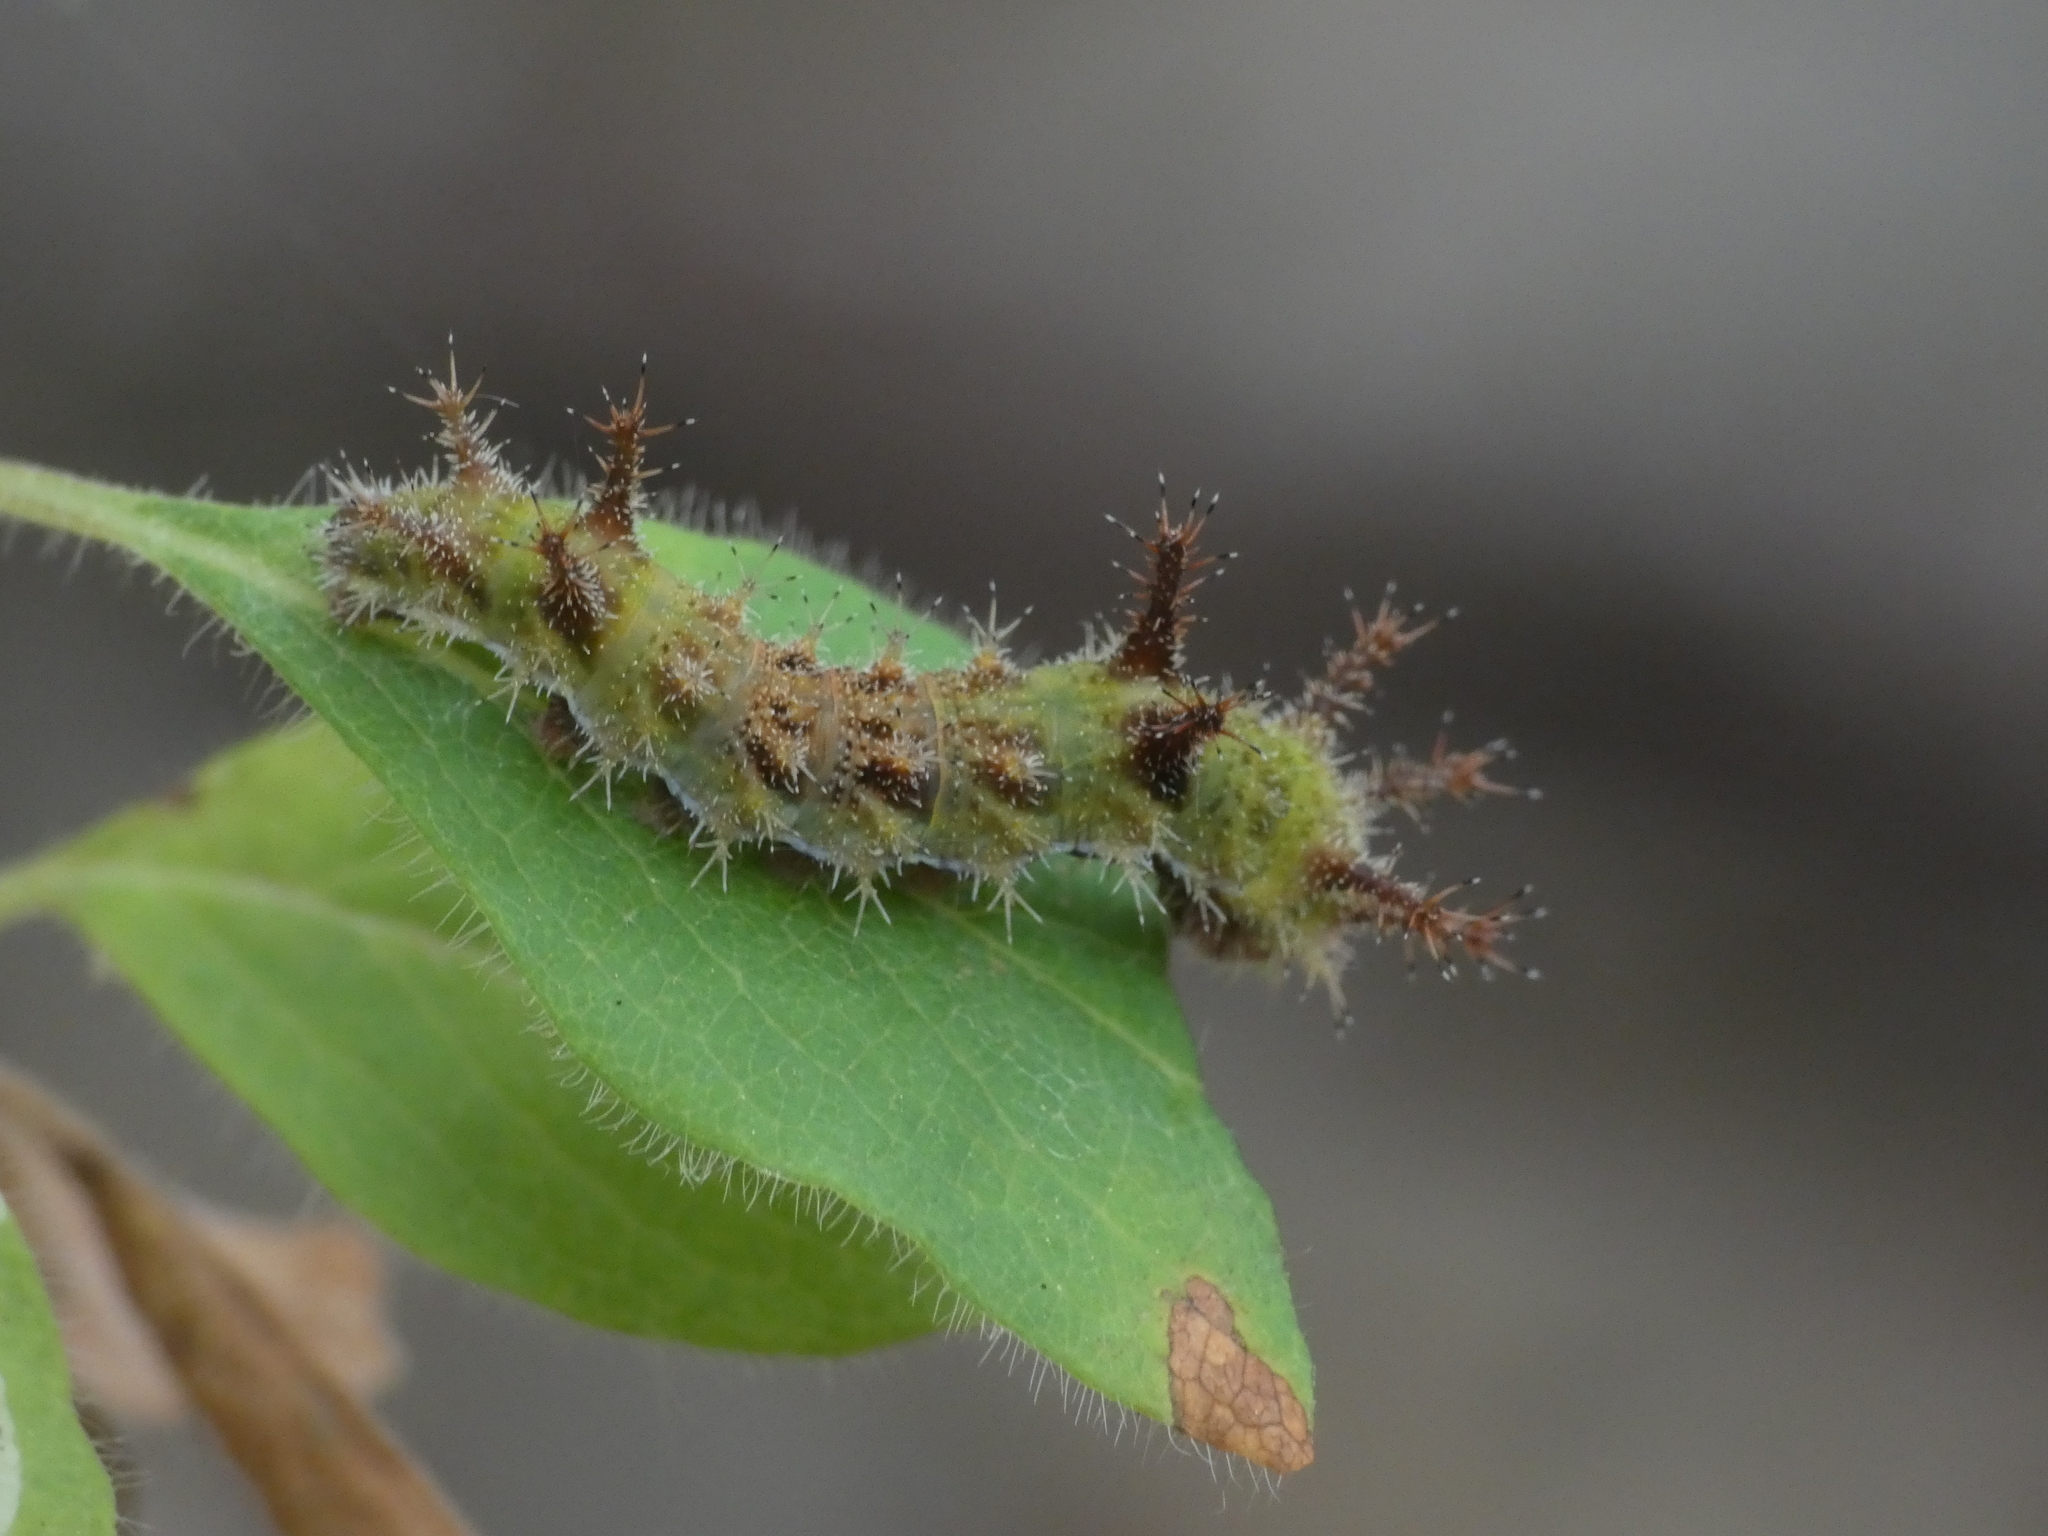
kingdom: Animalia
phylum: Arthropoda
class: Insecta
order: Lepidoptera
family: Nymphalidae
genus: Limenitis
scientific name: Limenitis reducta
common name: Southern white admiral
